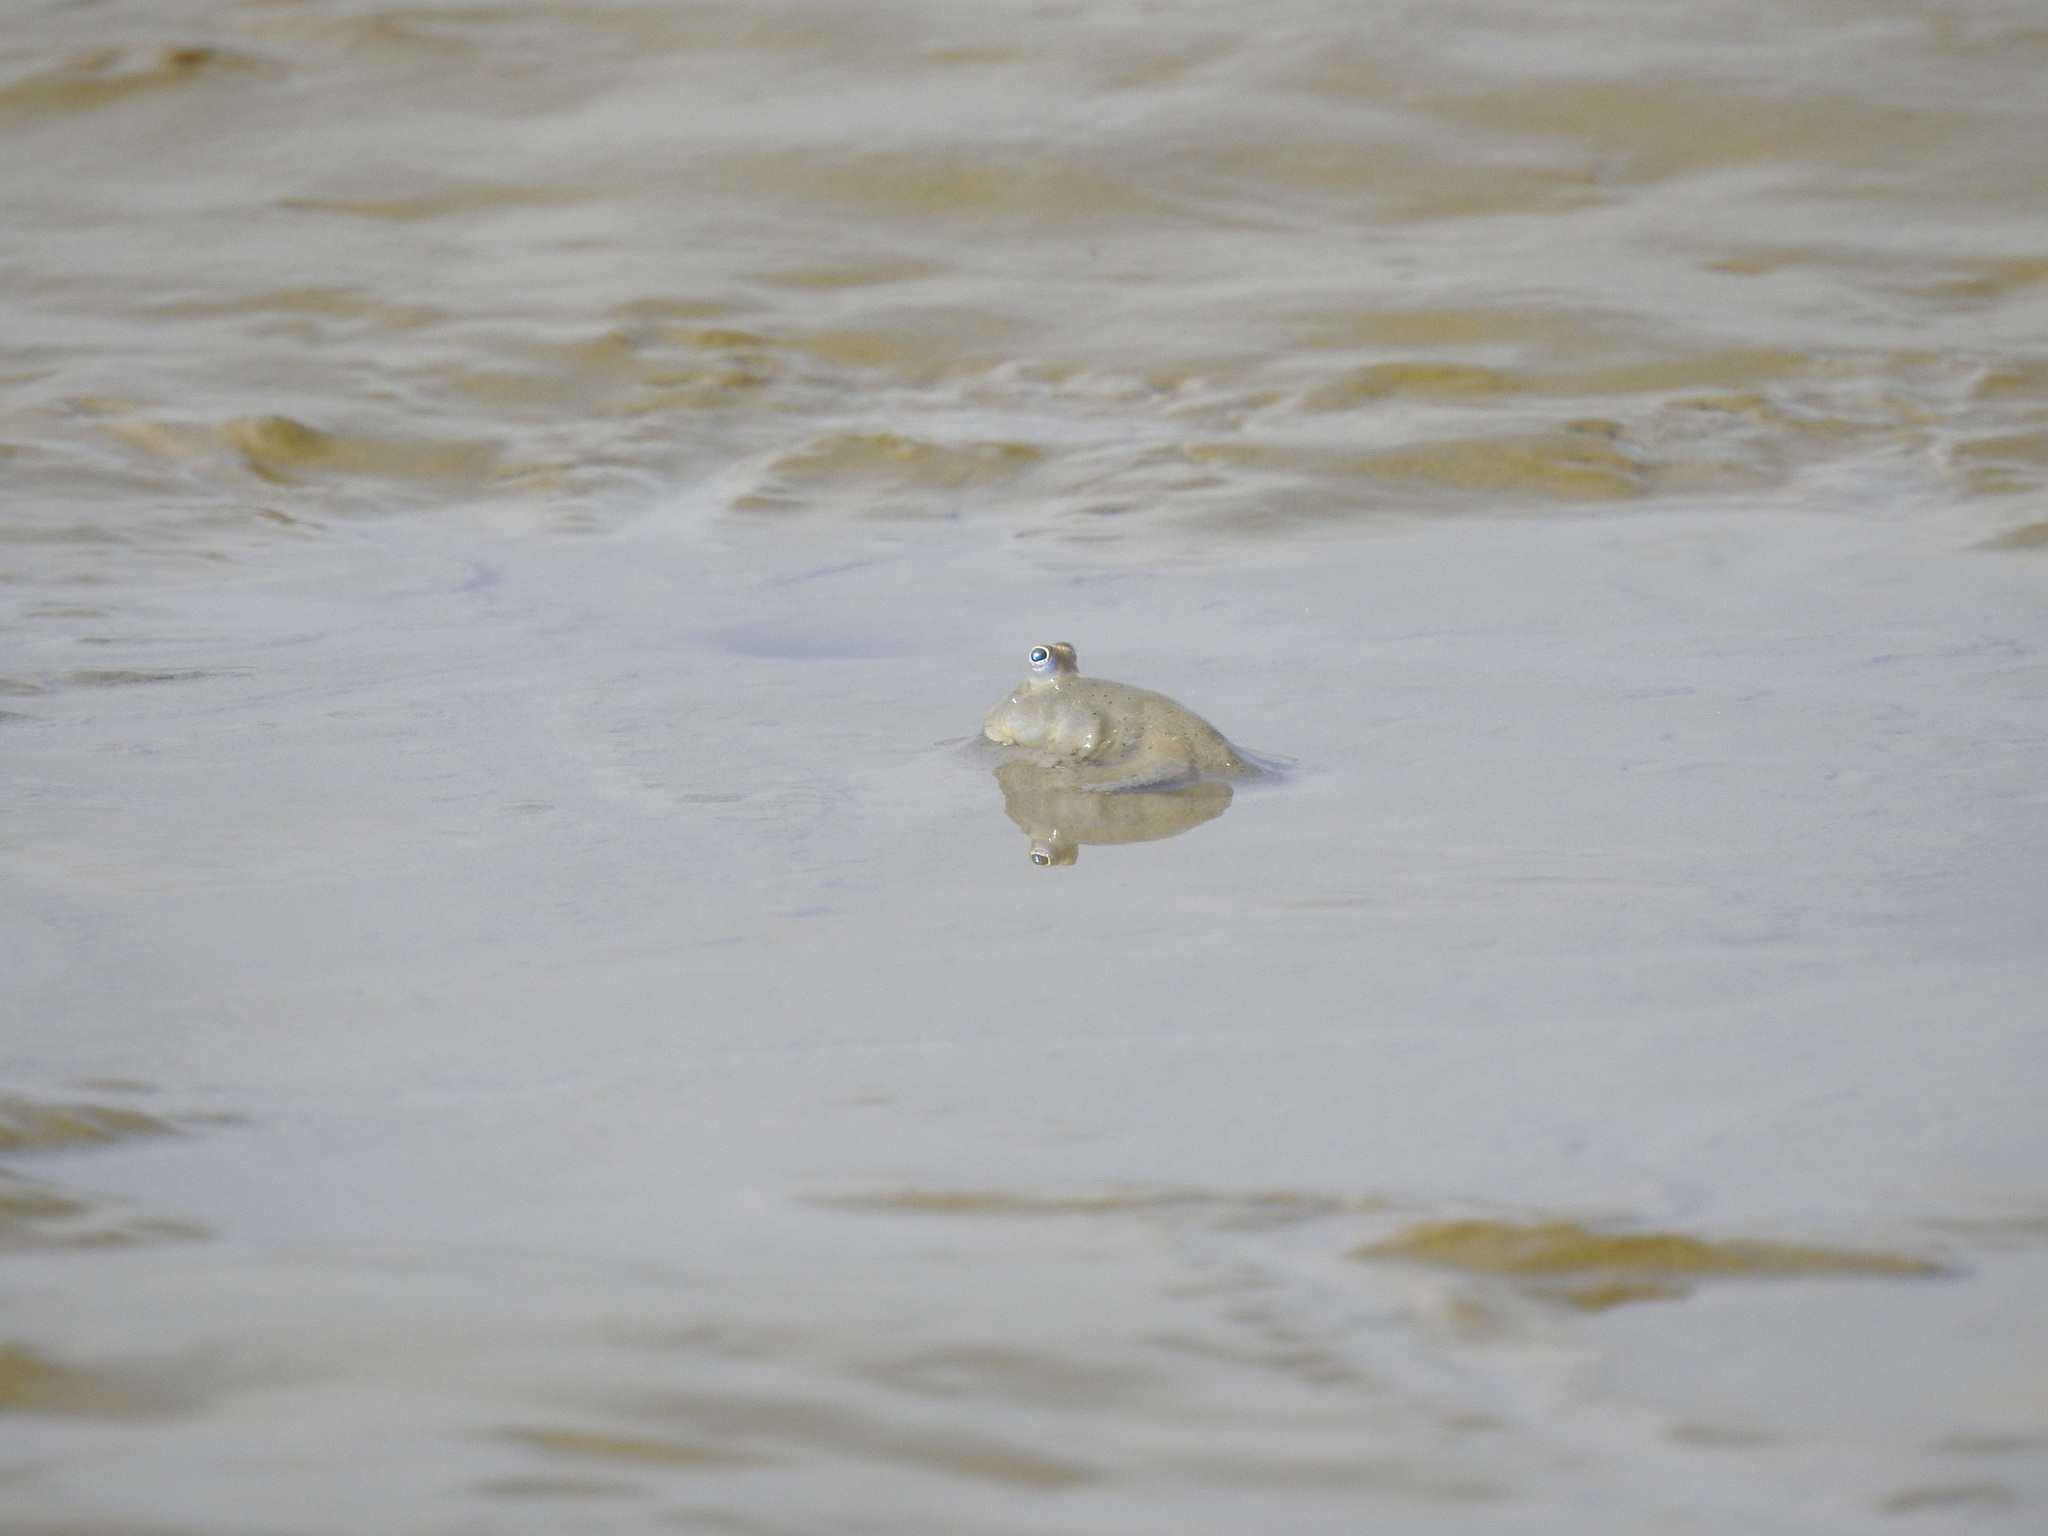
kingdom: Animalia
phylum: Chordata
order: Perciformes
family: Gobiidae
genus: Scartelaos
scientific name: Scartelaos histophorus
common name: Walking goby
